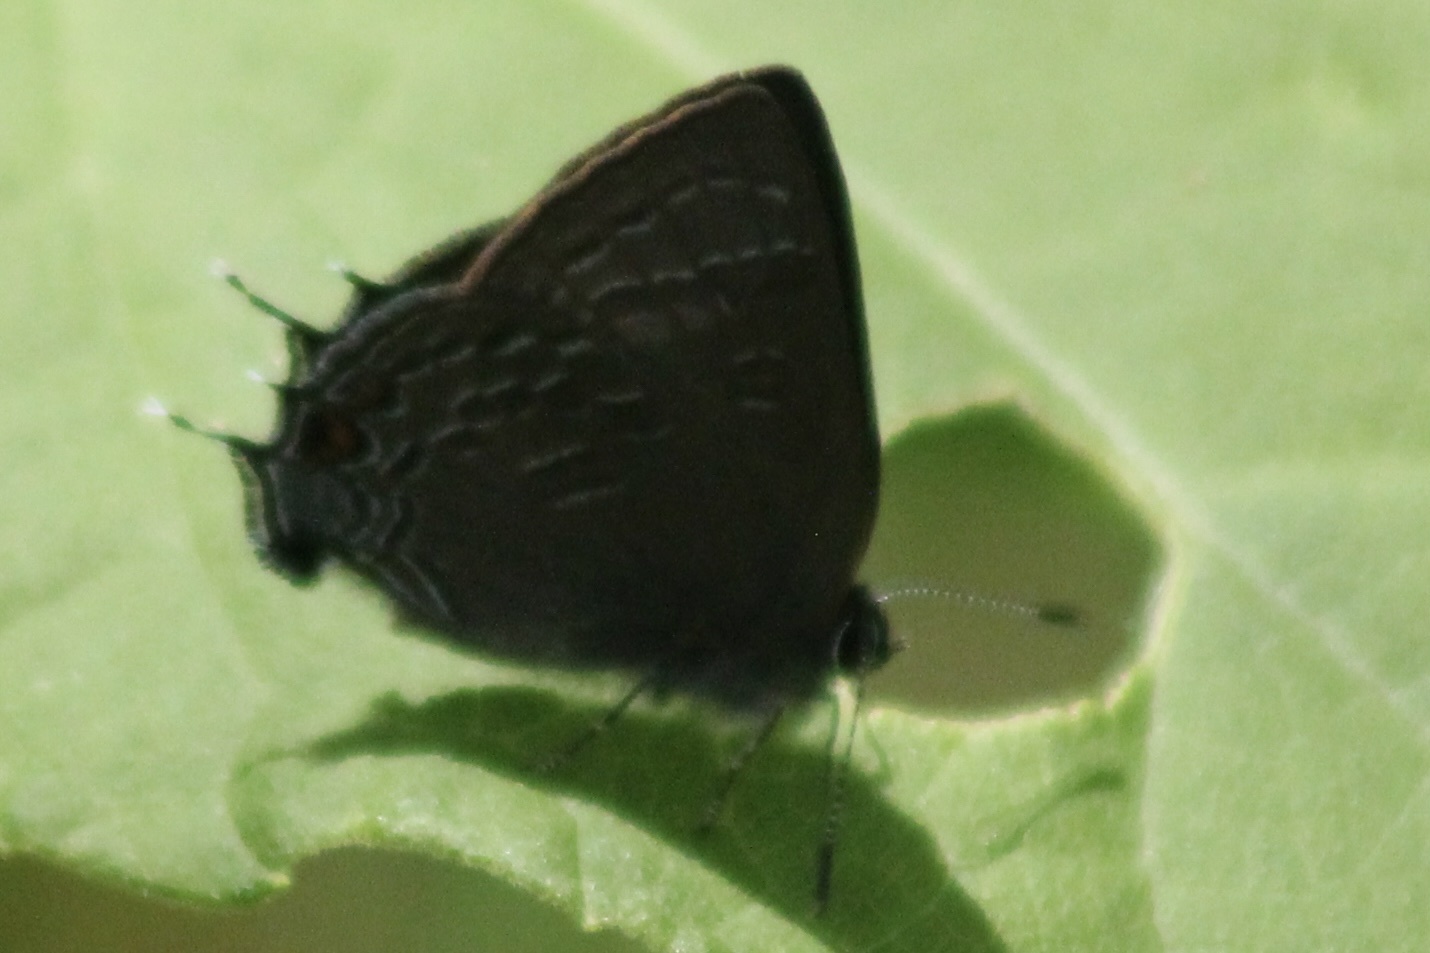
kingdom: Animalia
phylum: Arthropoda
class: Insecta
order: Lepidoptera
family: Lycaenidae
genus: Satyrium
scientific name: Satyrium calanus
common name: Banded hairstreak
